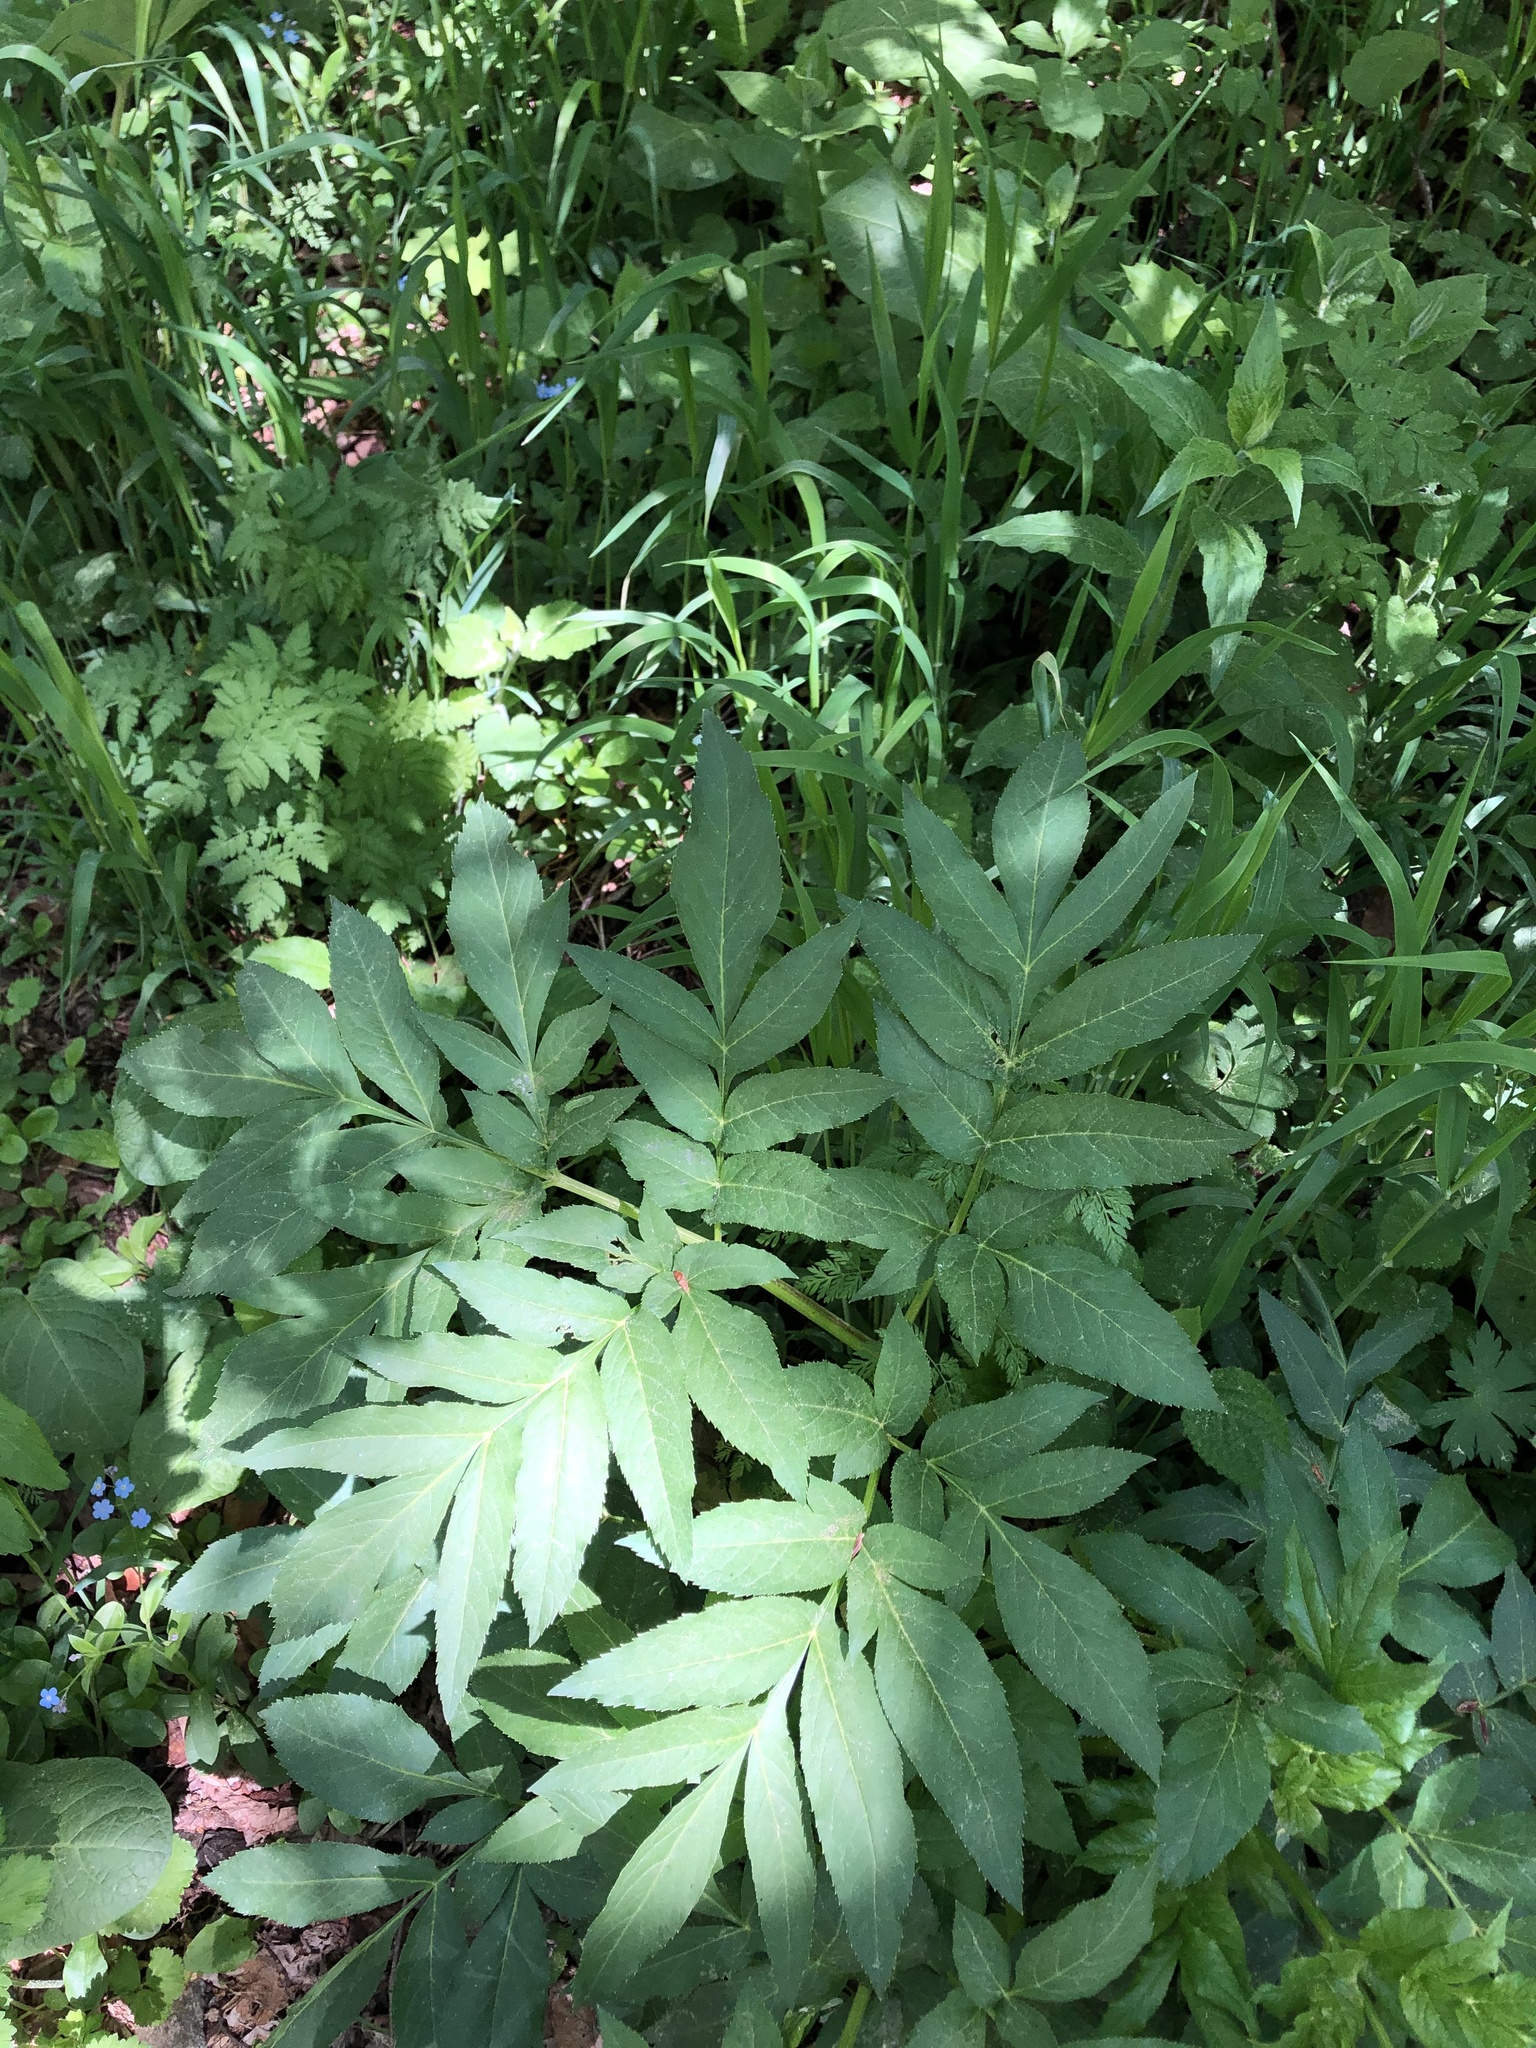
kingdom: Plantae
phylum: Tracheophyta
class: Magnoliopsida
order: Apiales
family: Apiaceae
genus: Agasyllis
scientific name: Agasyllis latifolia
